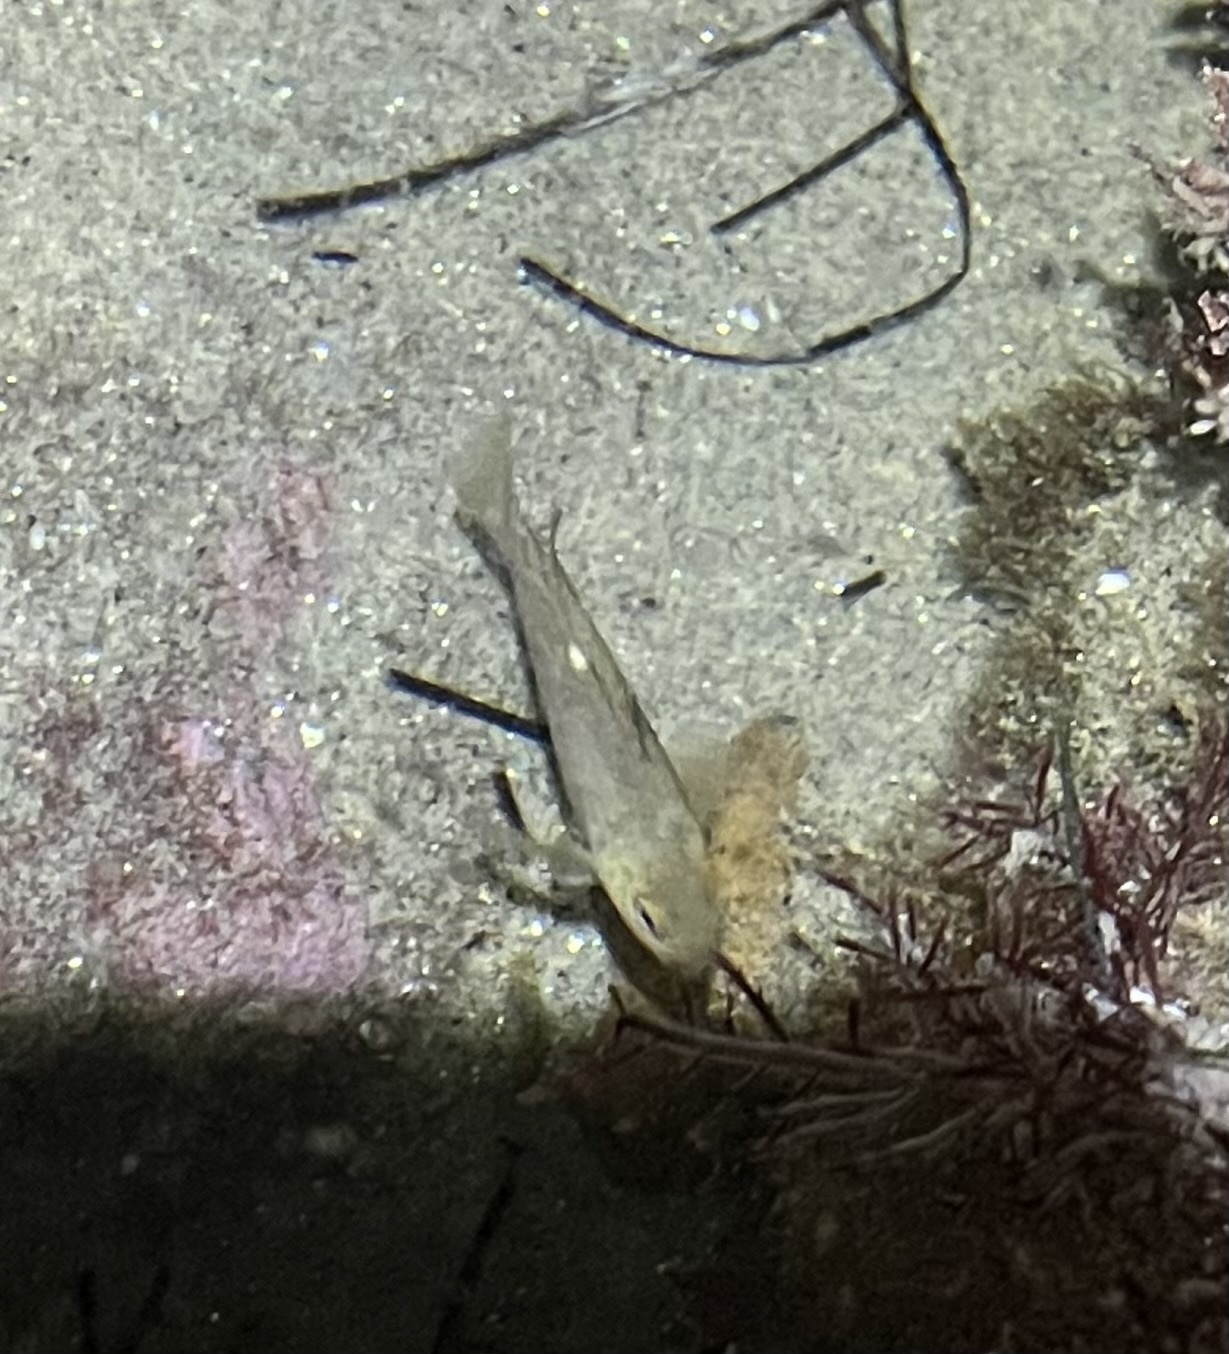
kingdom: Animalia
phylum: Chordata
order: Perciformes
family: Kyphosidae
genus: Girella
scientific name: Girella nigricans
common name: Opaleye
